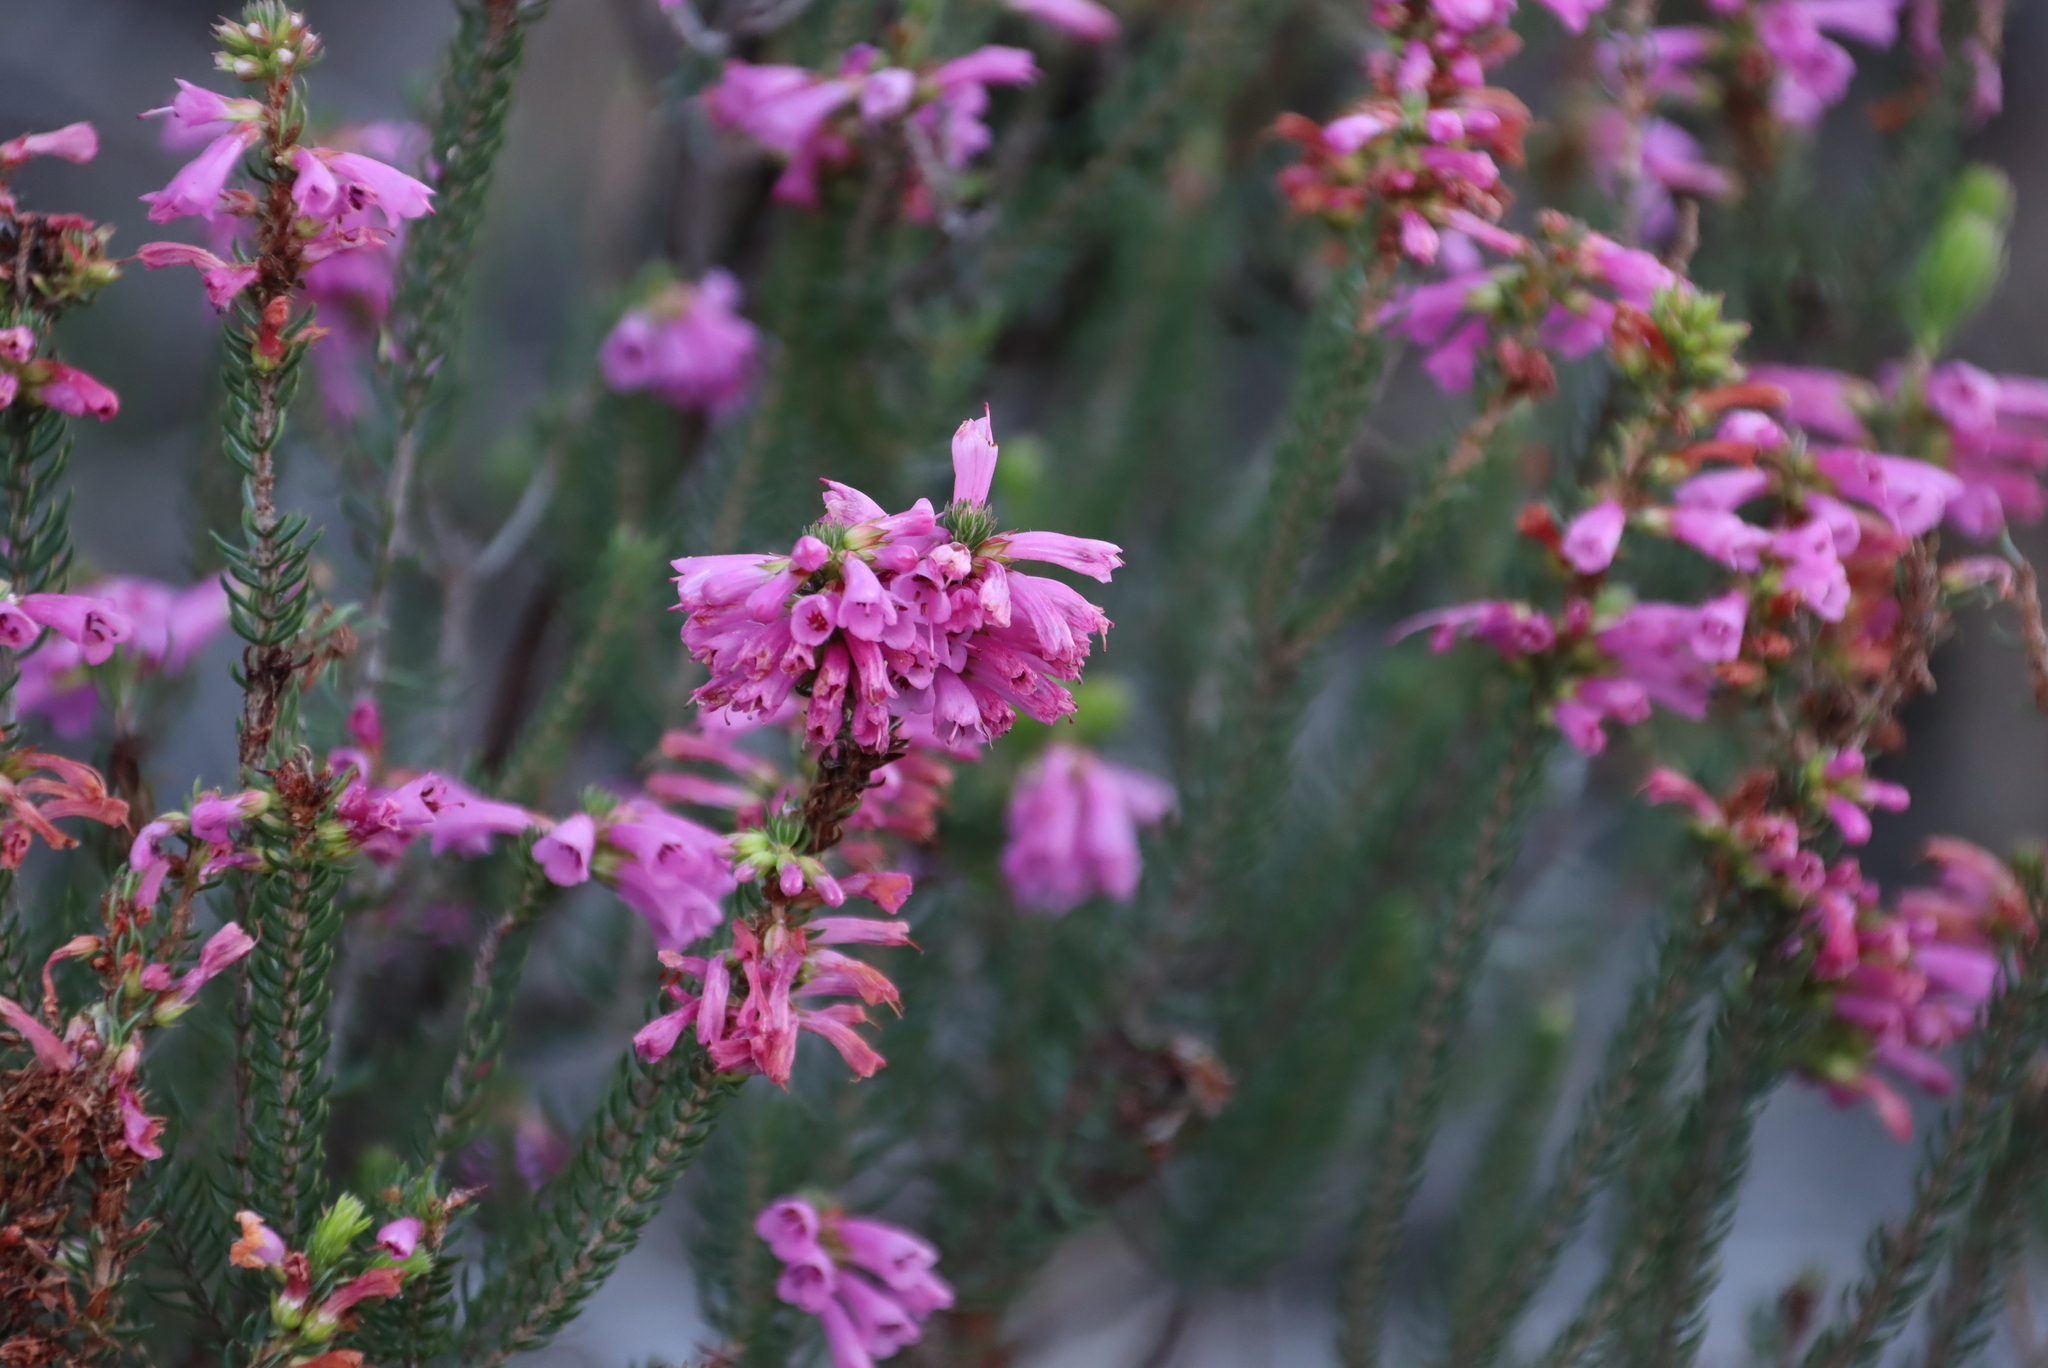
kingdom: Plantae
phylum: Tracheophyta
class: Magnoliopsida
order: Ericales
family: Ericaceae
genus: Erica
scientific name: Erica abietina
